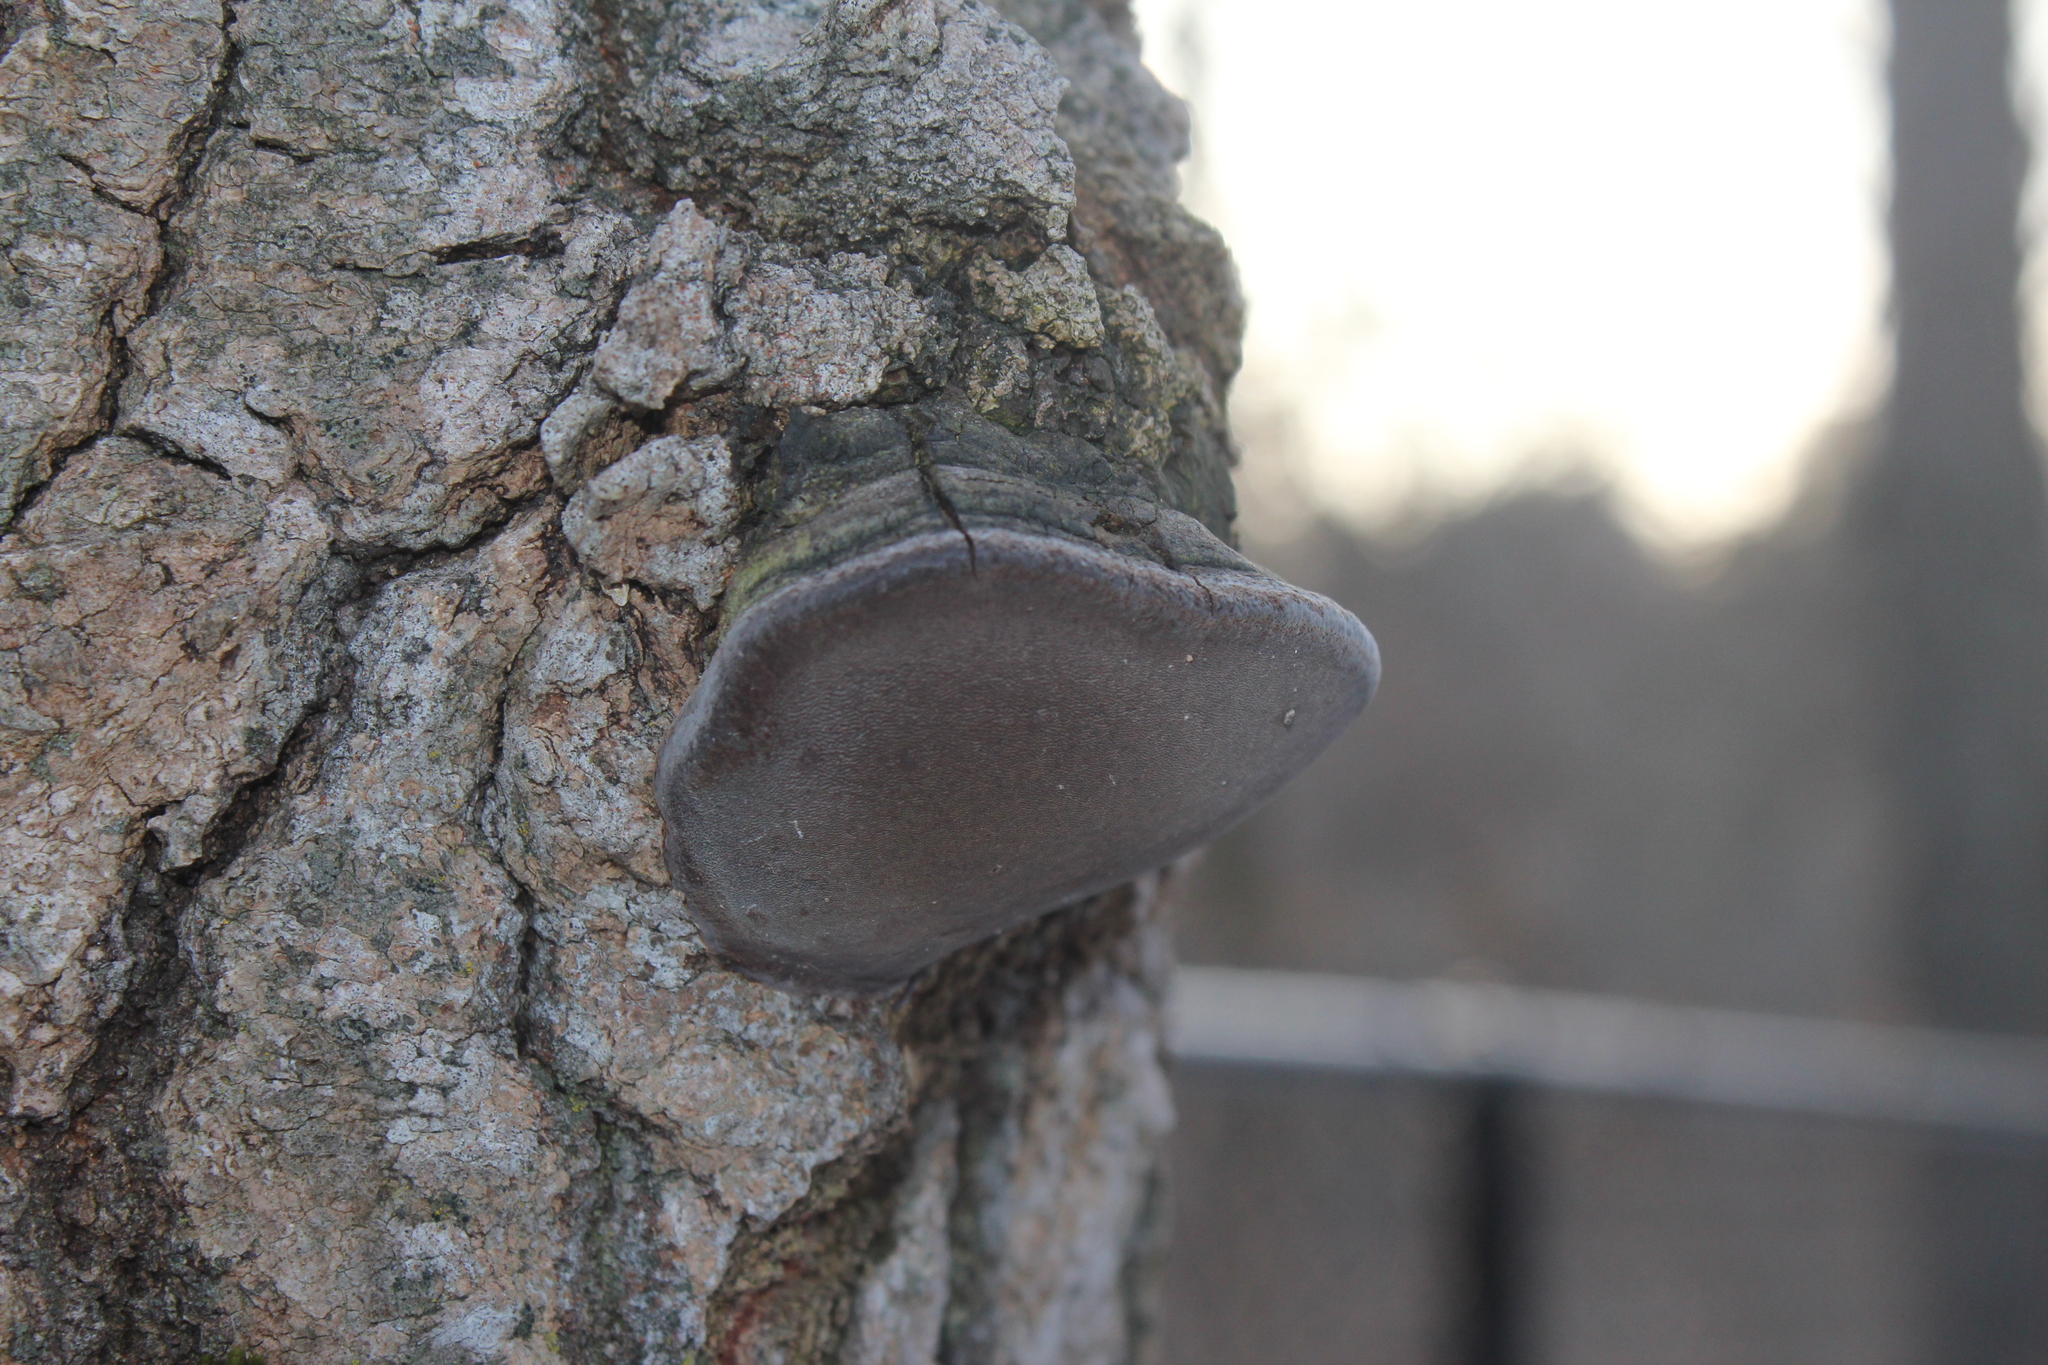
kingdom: Fungi
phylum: Basidiomycota
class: Agaricomycetes
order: Hymenochaetales
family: Hymenochaetaceae
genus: Phellinus
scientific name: Phellinus tremulae
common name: Aspen bracket
